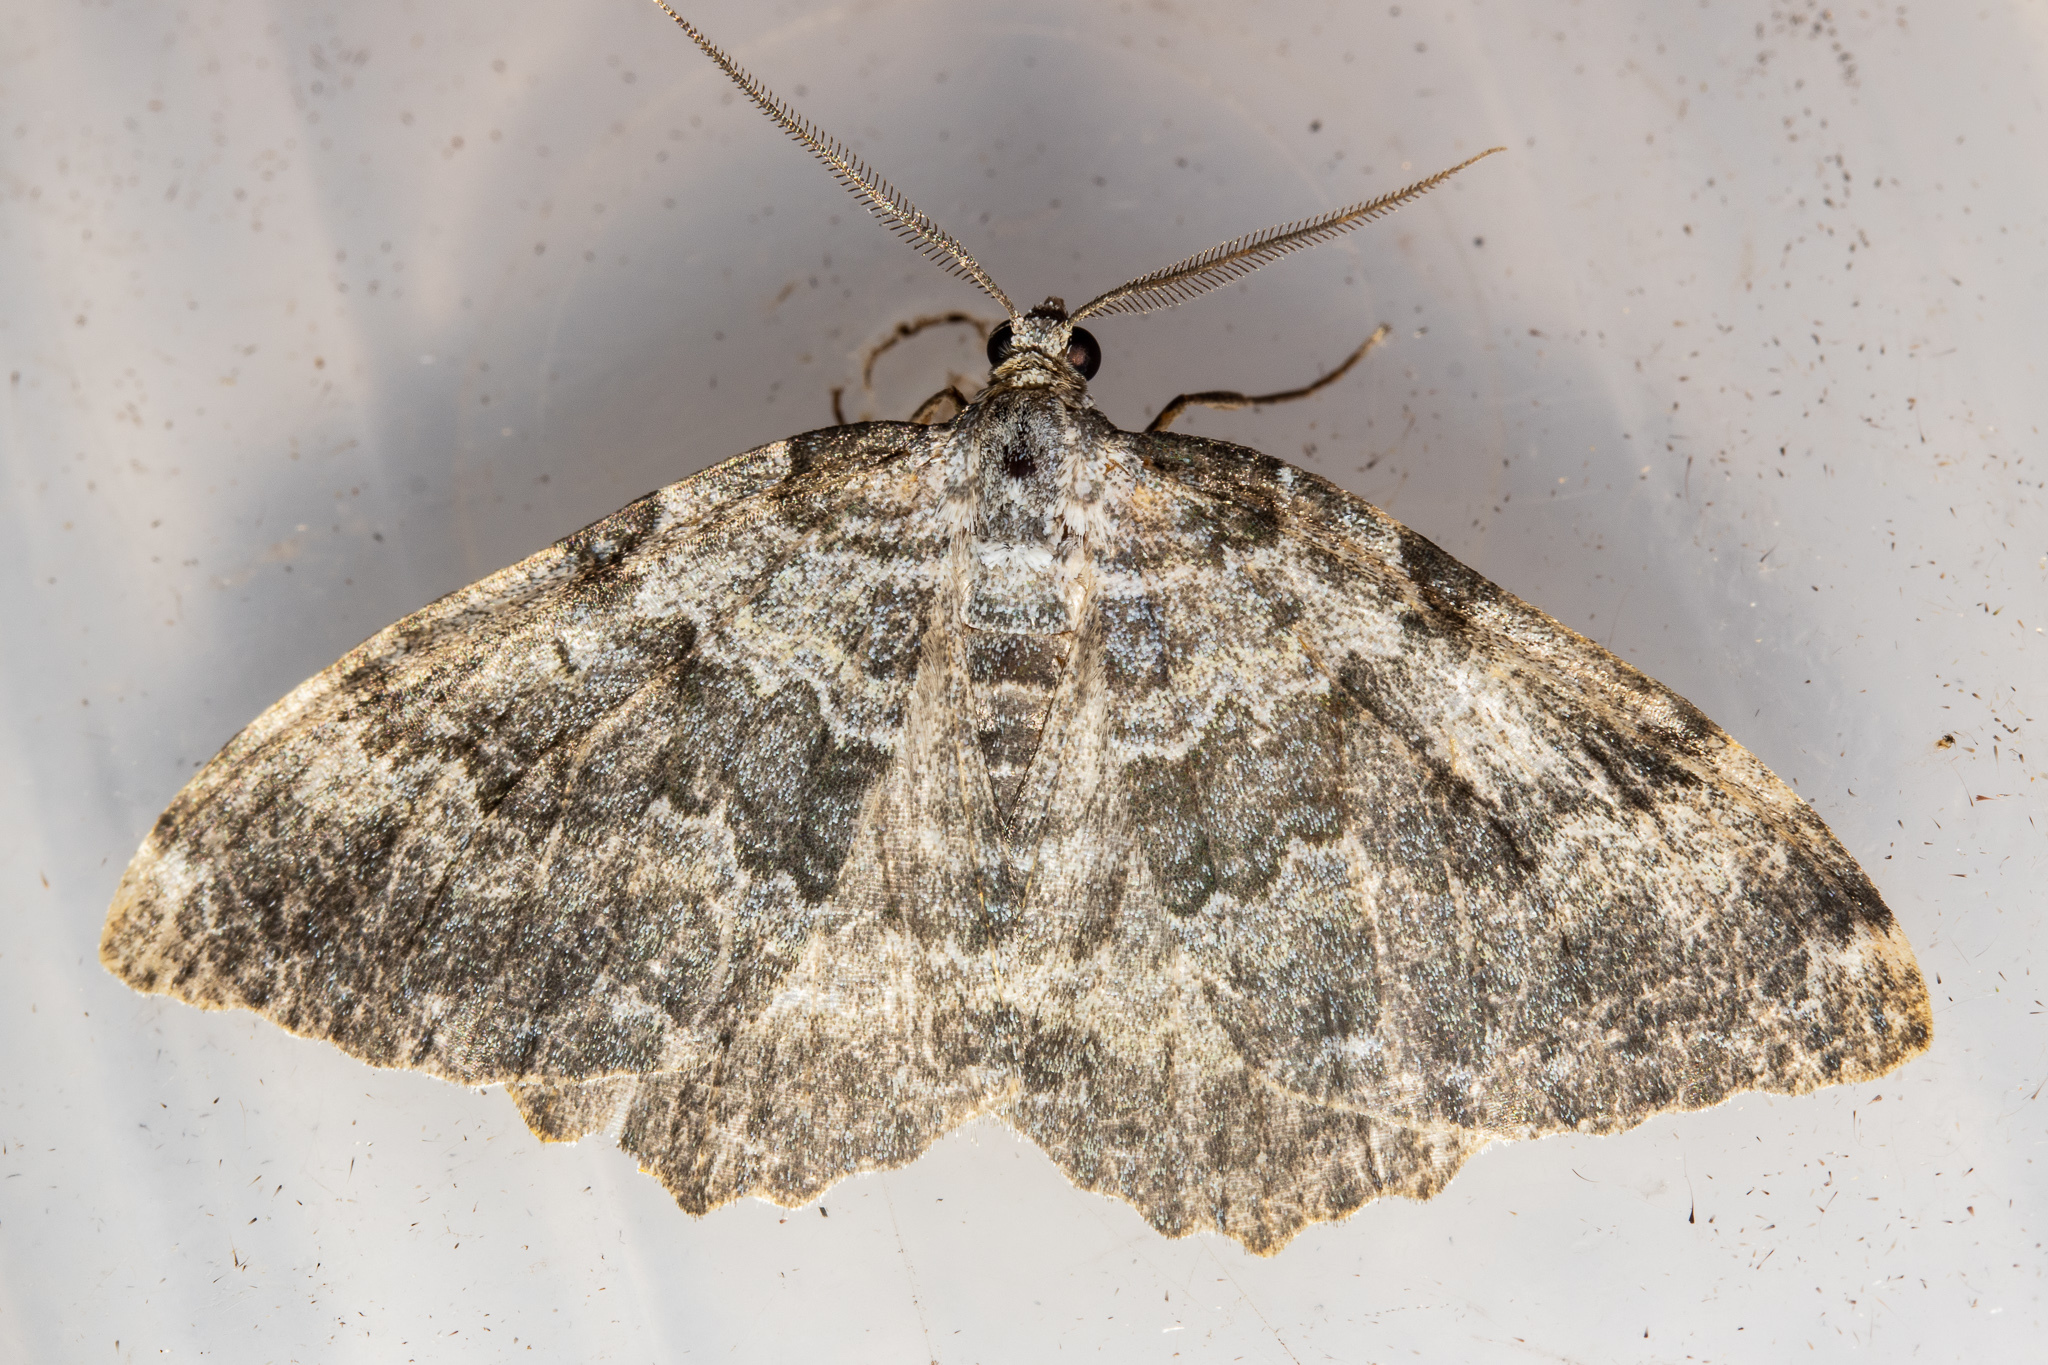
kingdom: Animalia
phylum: Arthropoda
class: Insecta
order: Lepidoptera
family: Geometridae
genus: Gingidiobora
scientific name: Gingidiobora subobscurata
